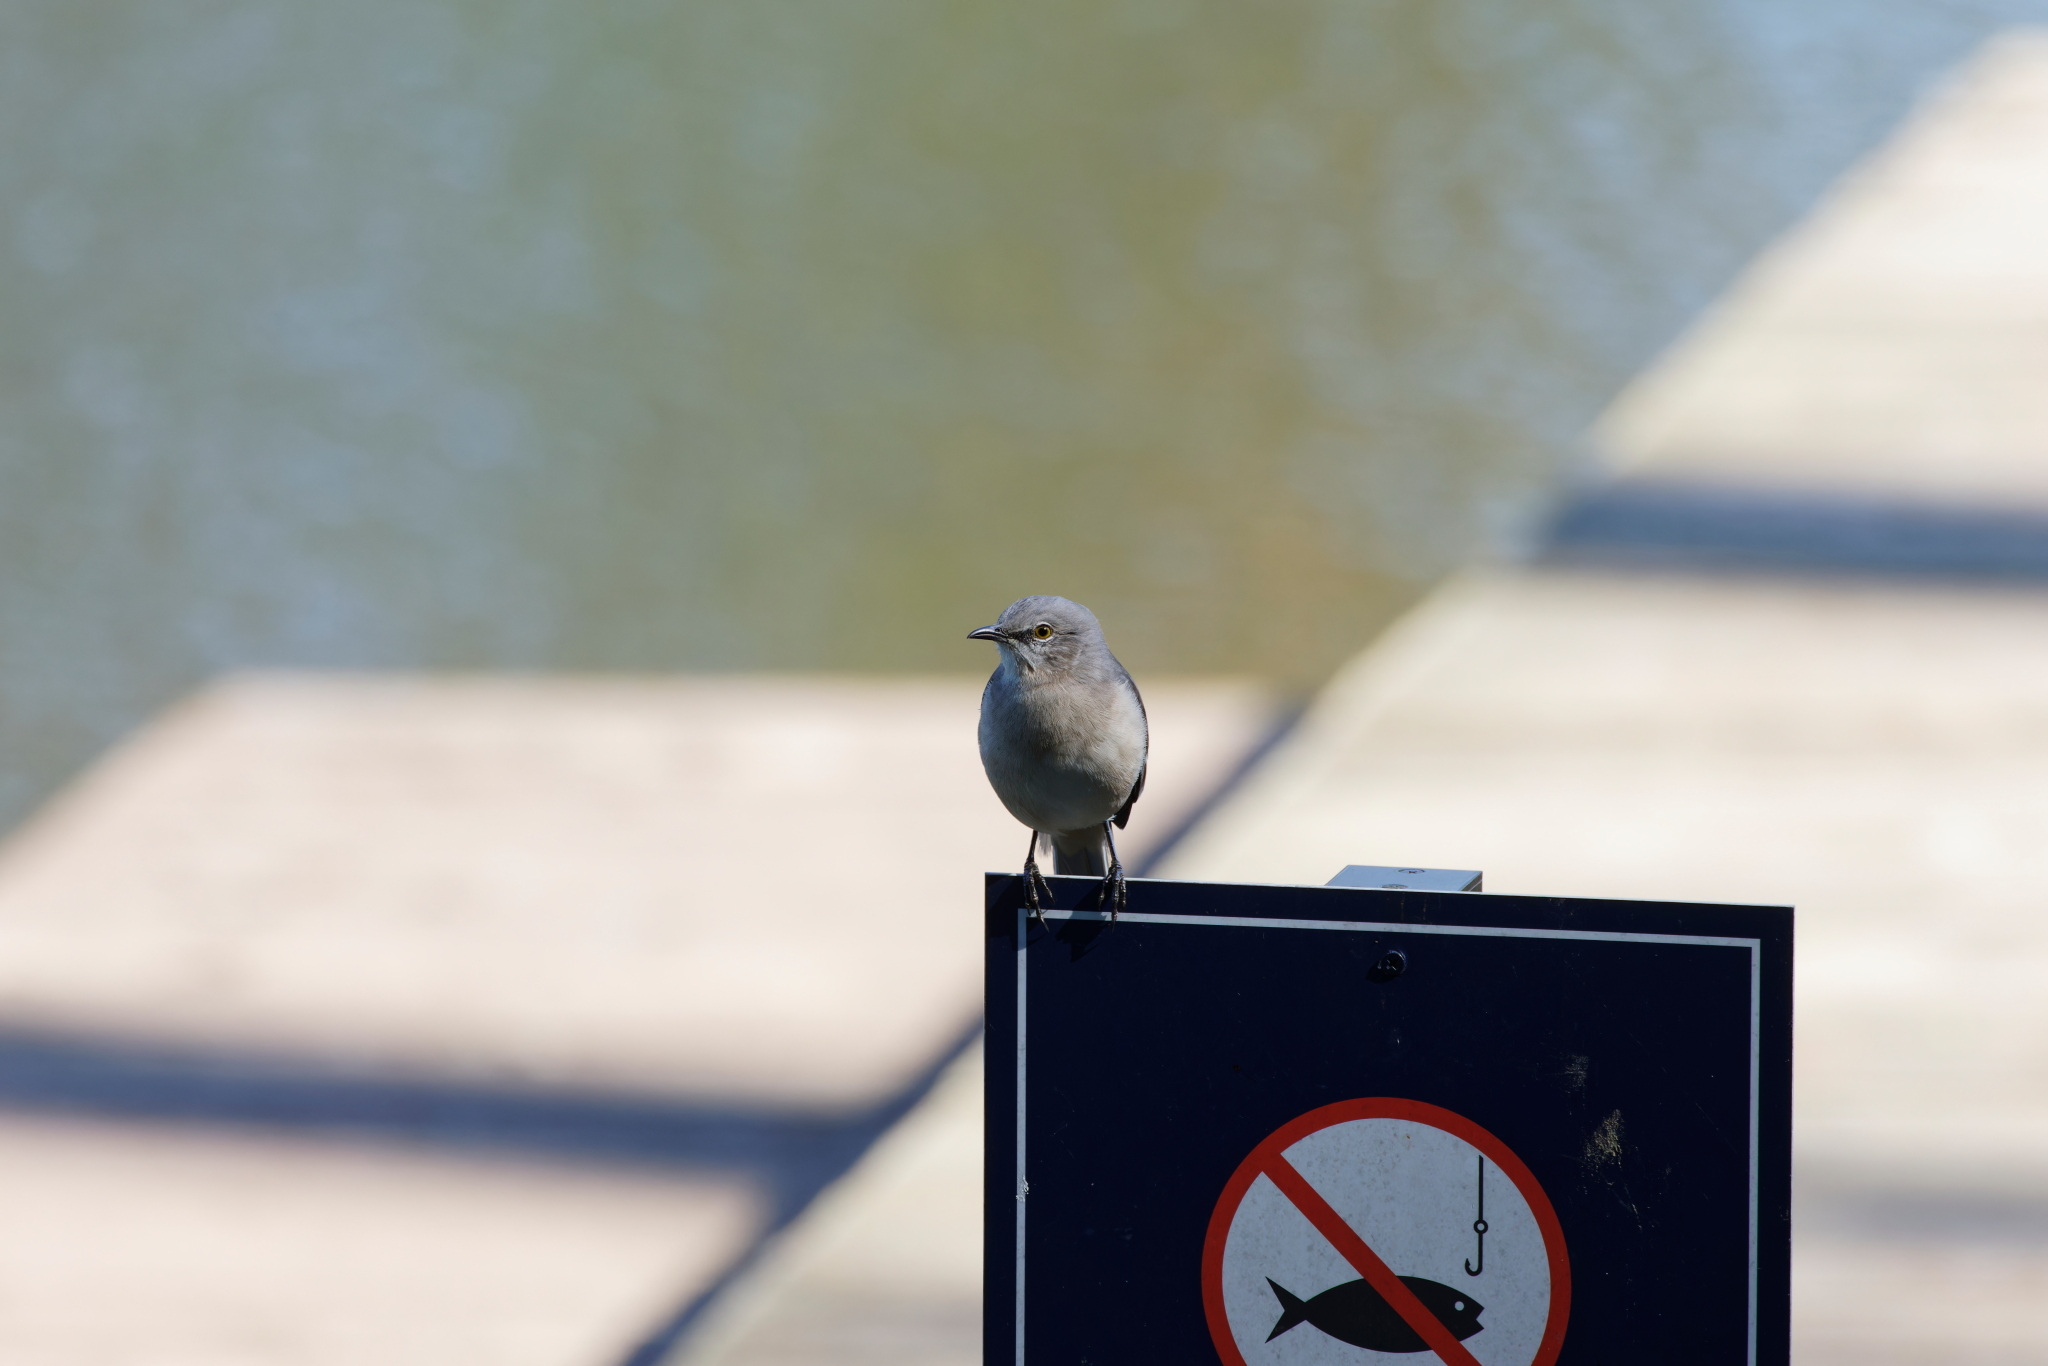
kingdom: Animalia
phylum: Chordata
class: Aves
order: Passeriformes
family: Mimidae
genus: Mimus
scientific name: Mimus polyglottos
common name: Northern mockingbird
